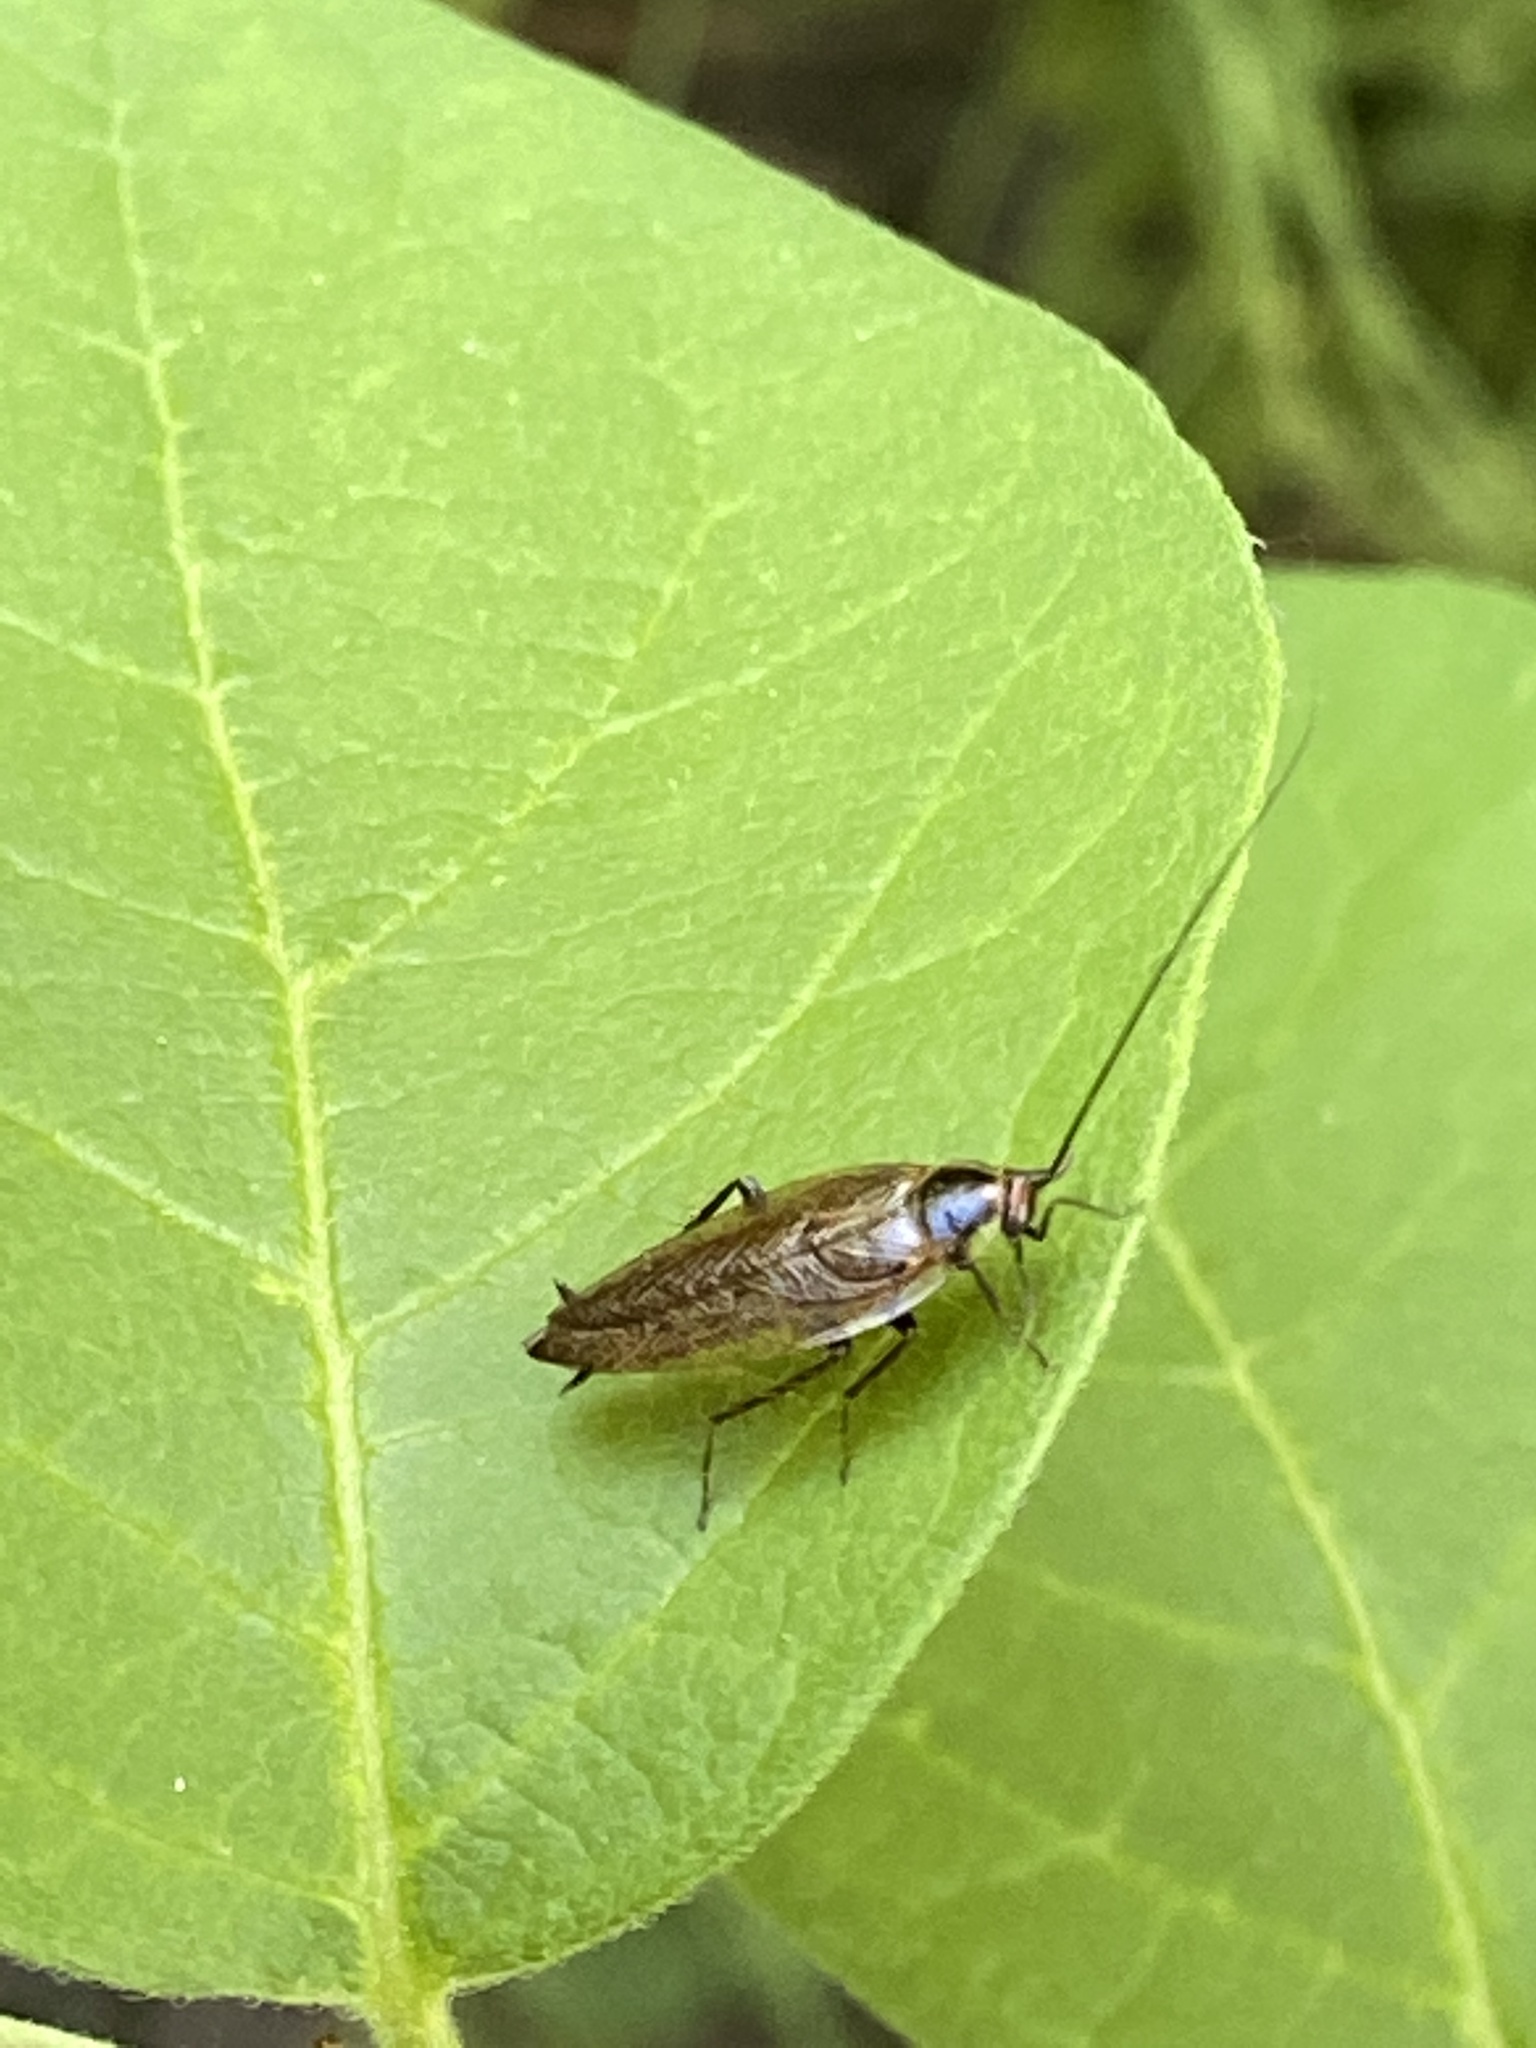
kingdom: Animalia
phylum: Arthropoda
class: Insecta
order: Blattodea
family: Ectobiidae
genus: Ectobius
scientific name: Ectobius lapponicus
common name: Dusky cockroach
